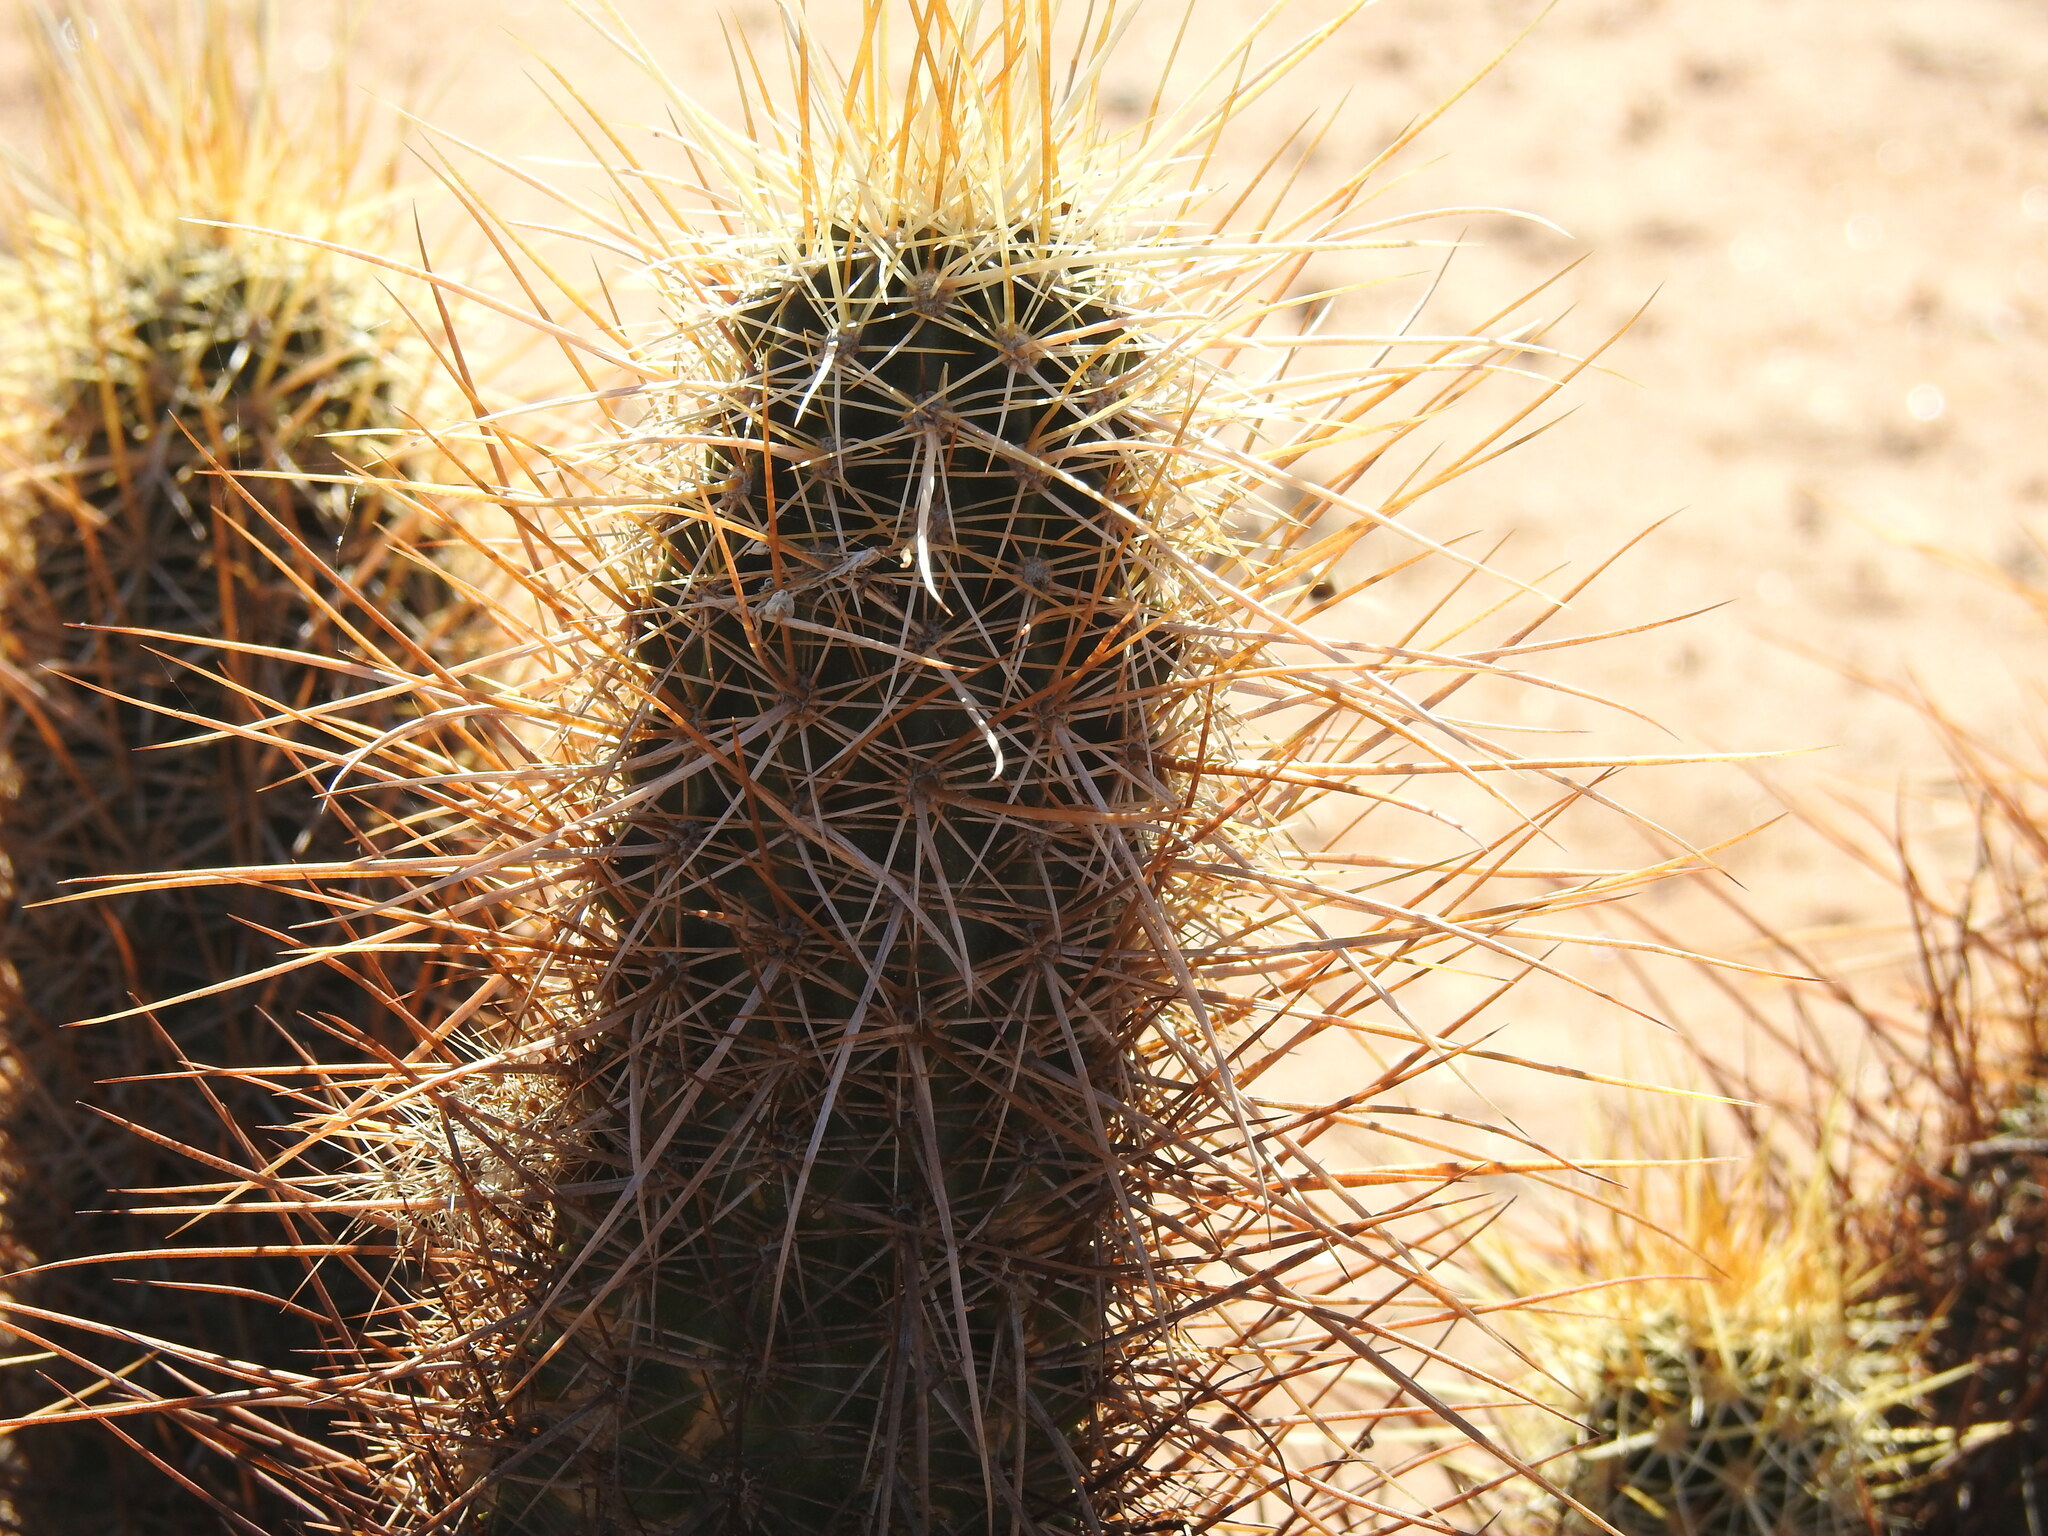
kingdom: Plantae
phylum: Tracheophyta
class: Magnoliopsida
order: Caryophyllales
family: Cactaceae
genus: Echinocereus
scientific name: Echinocereus engelmannii
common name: Engelmann's hedgehog cactus
